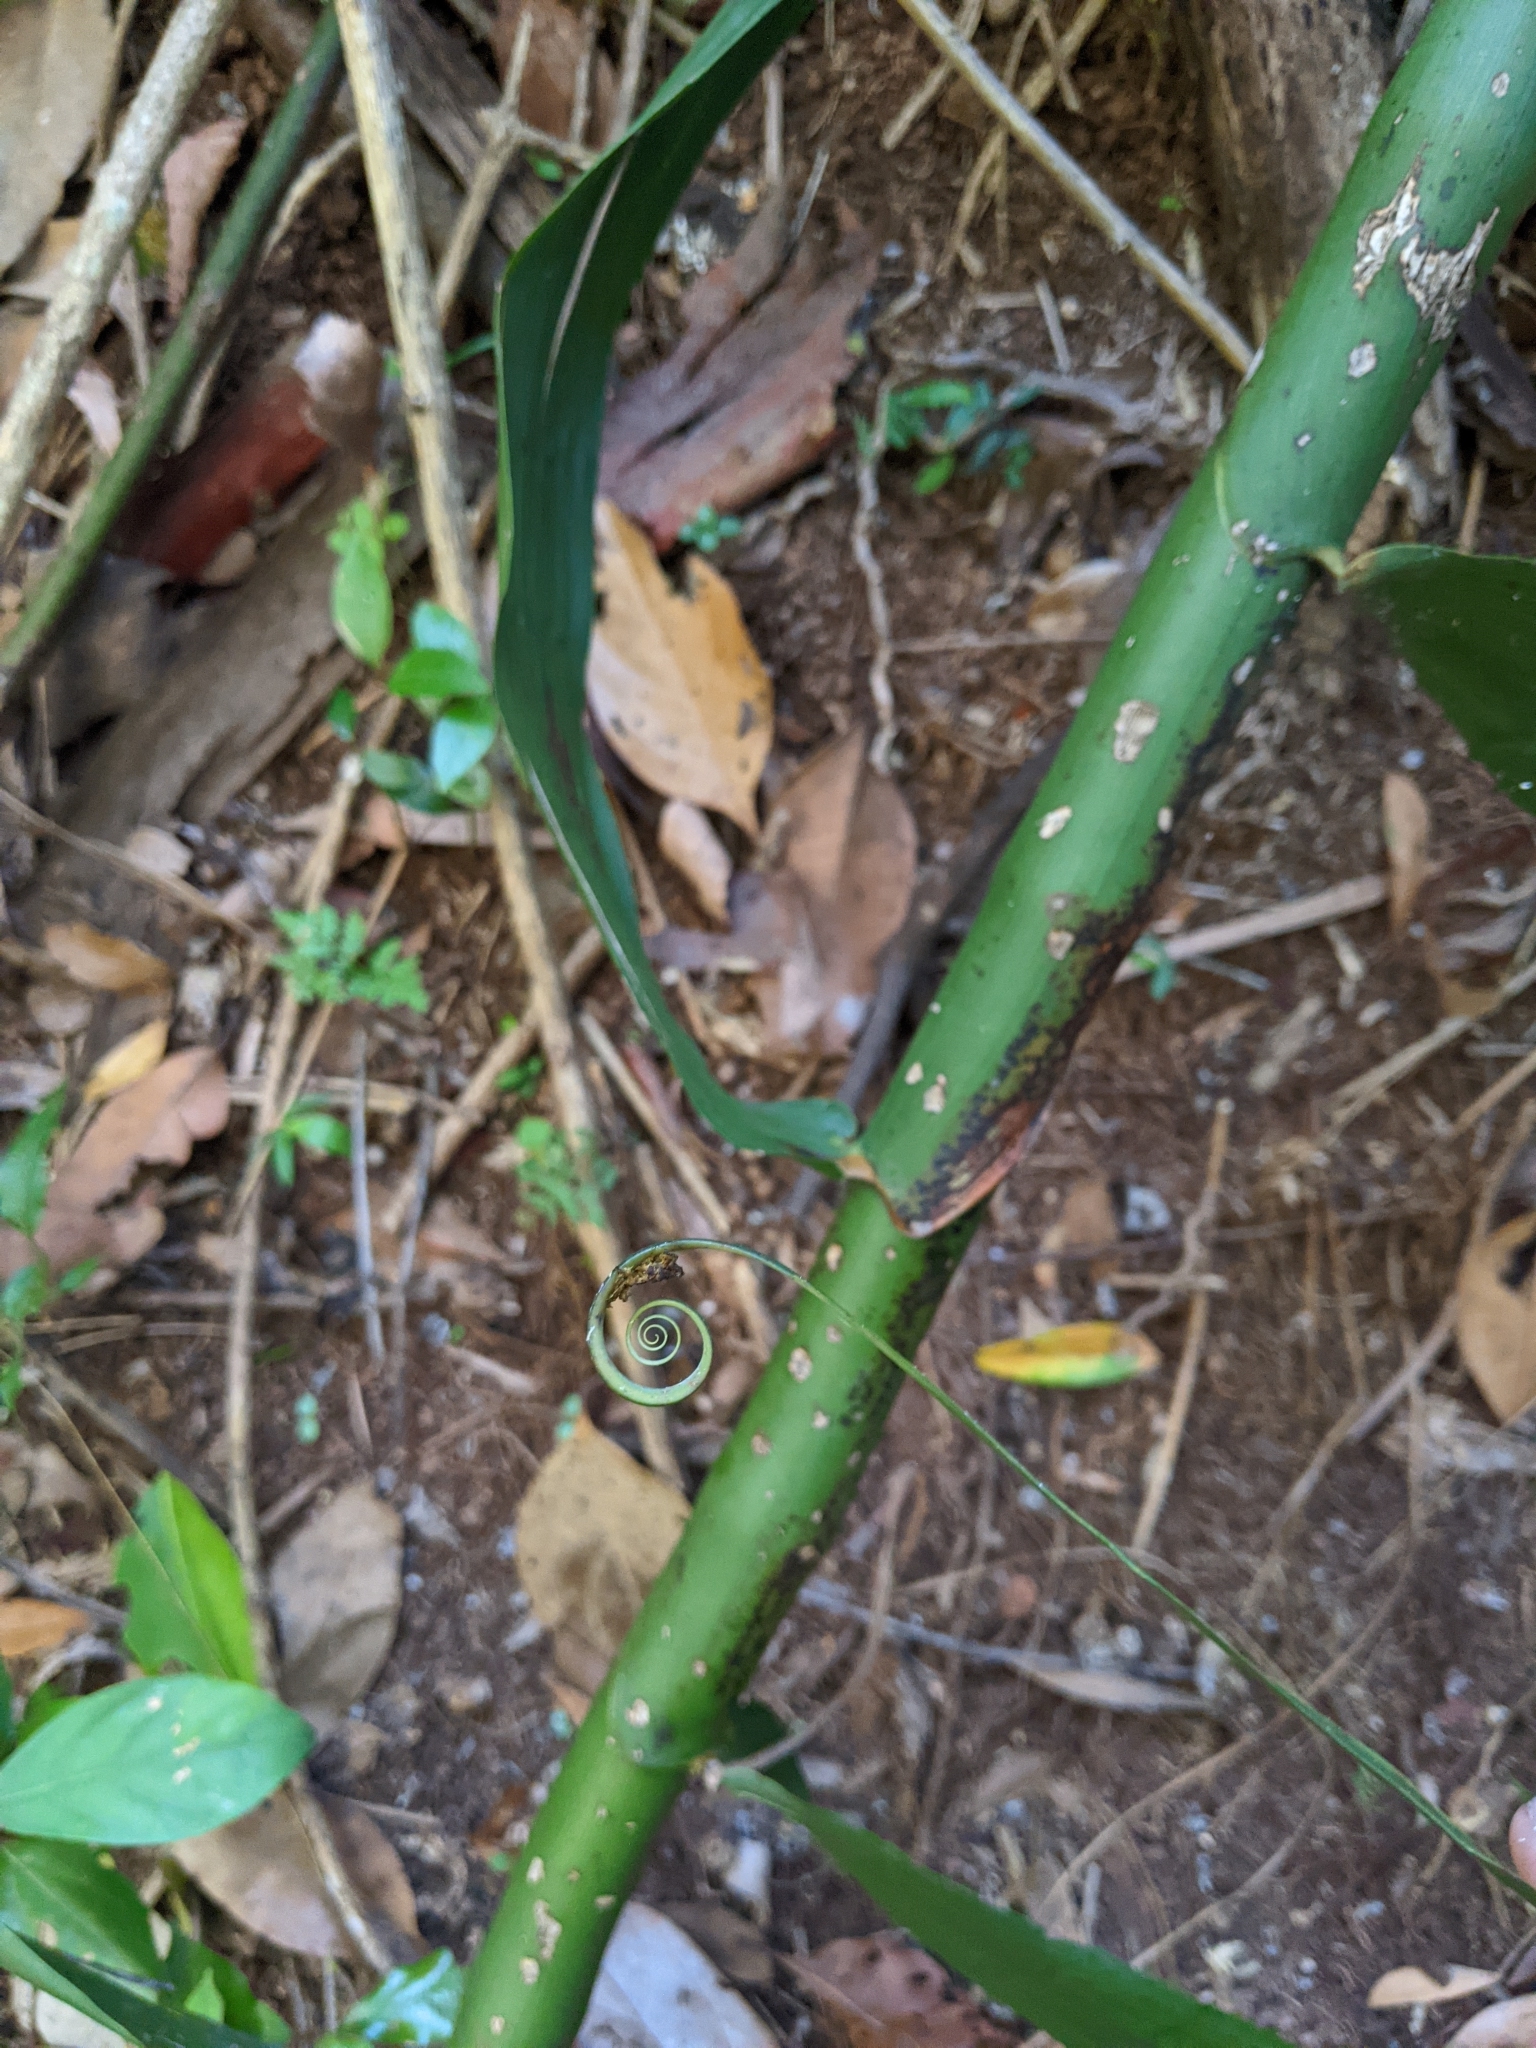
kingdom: Plantae
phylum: Tracheophyta
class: Liliopsida
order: Poales
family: Flagellariaceae
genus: Flagellaria
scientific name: Flagellaria indica
